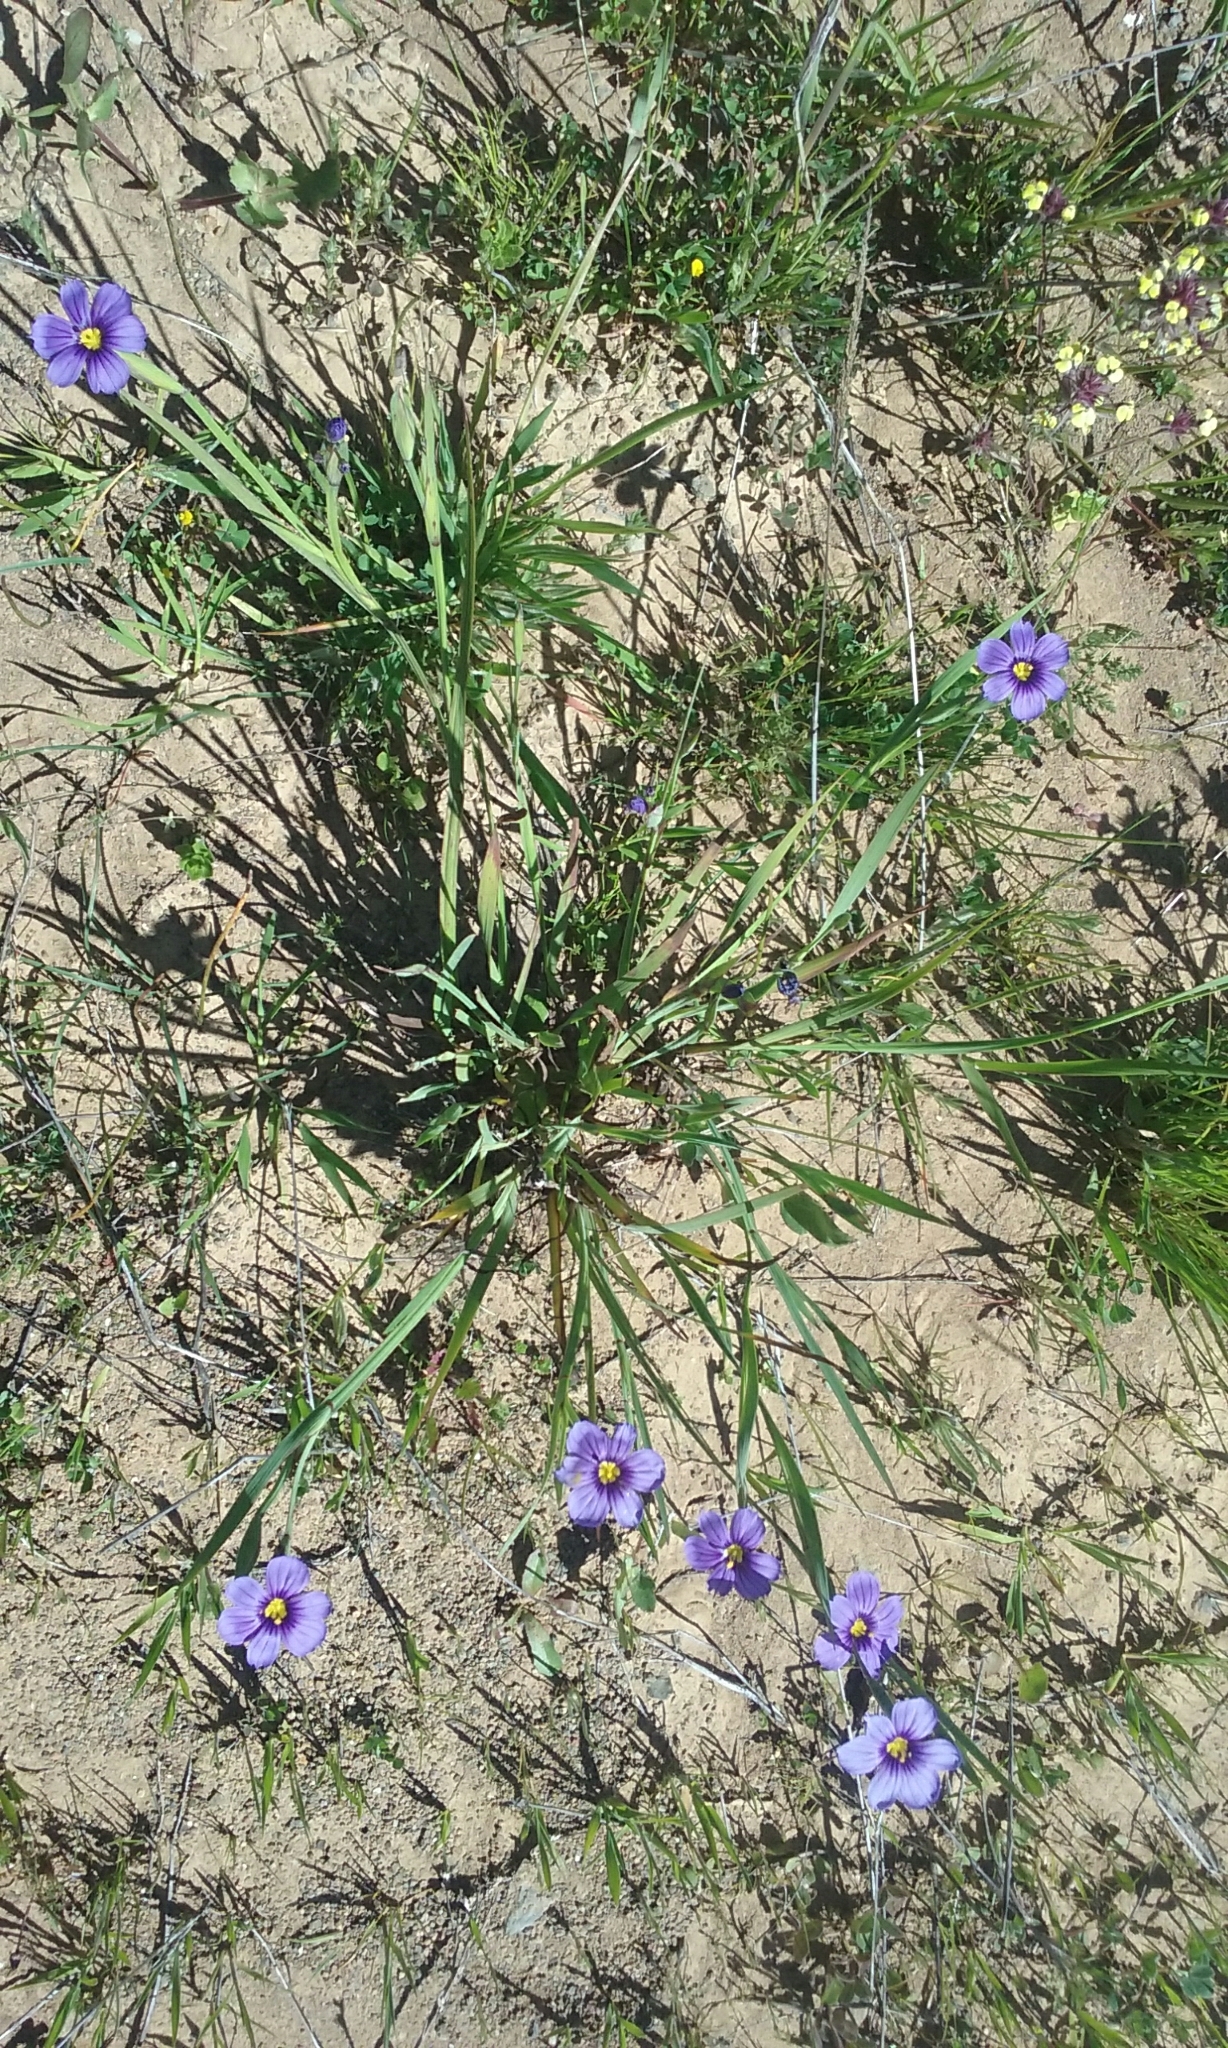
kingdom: Plantae
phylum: Tracheophyta
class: Liliopsida
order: Asparagales
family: Iridaceae
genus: Sisyrinchium
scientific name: Sisyrinchium bellum
